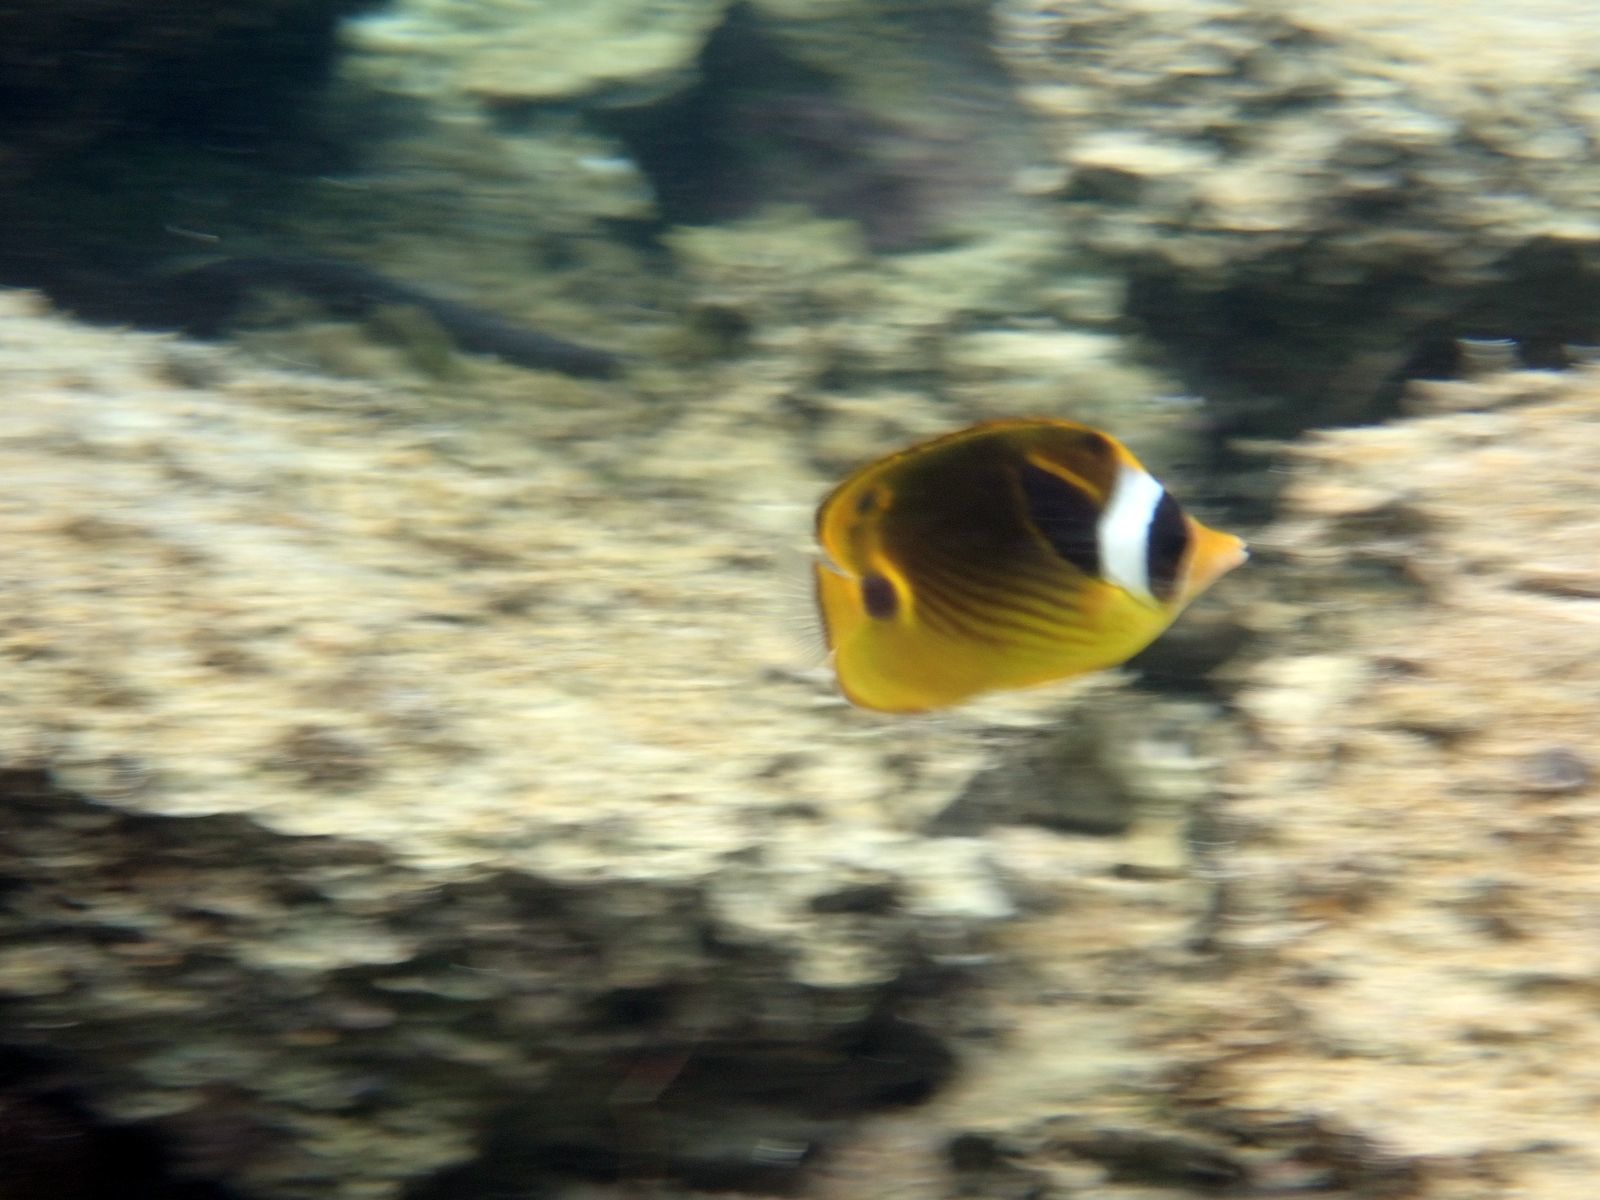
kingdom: Animalia
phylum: Chordata
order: Perciformes
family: Chaetodontidae
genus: Chaetodon
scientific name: Chaetodon lunula
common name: Raccoon butterflyfish
